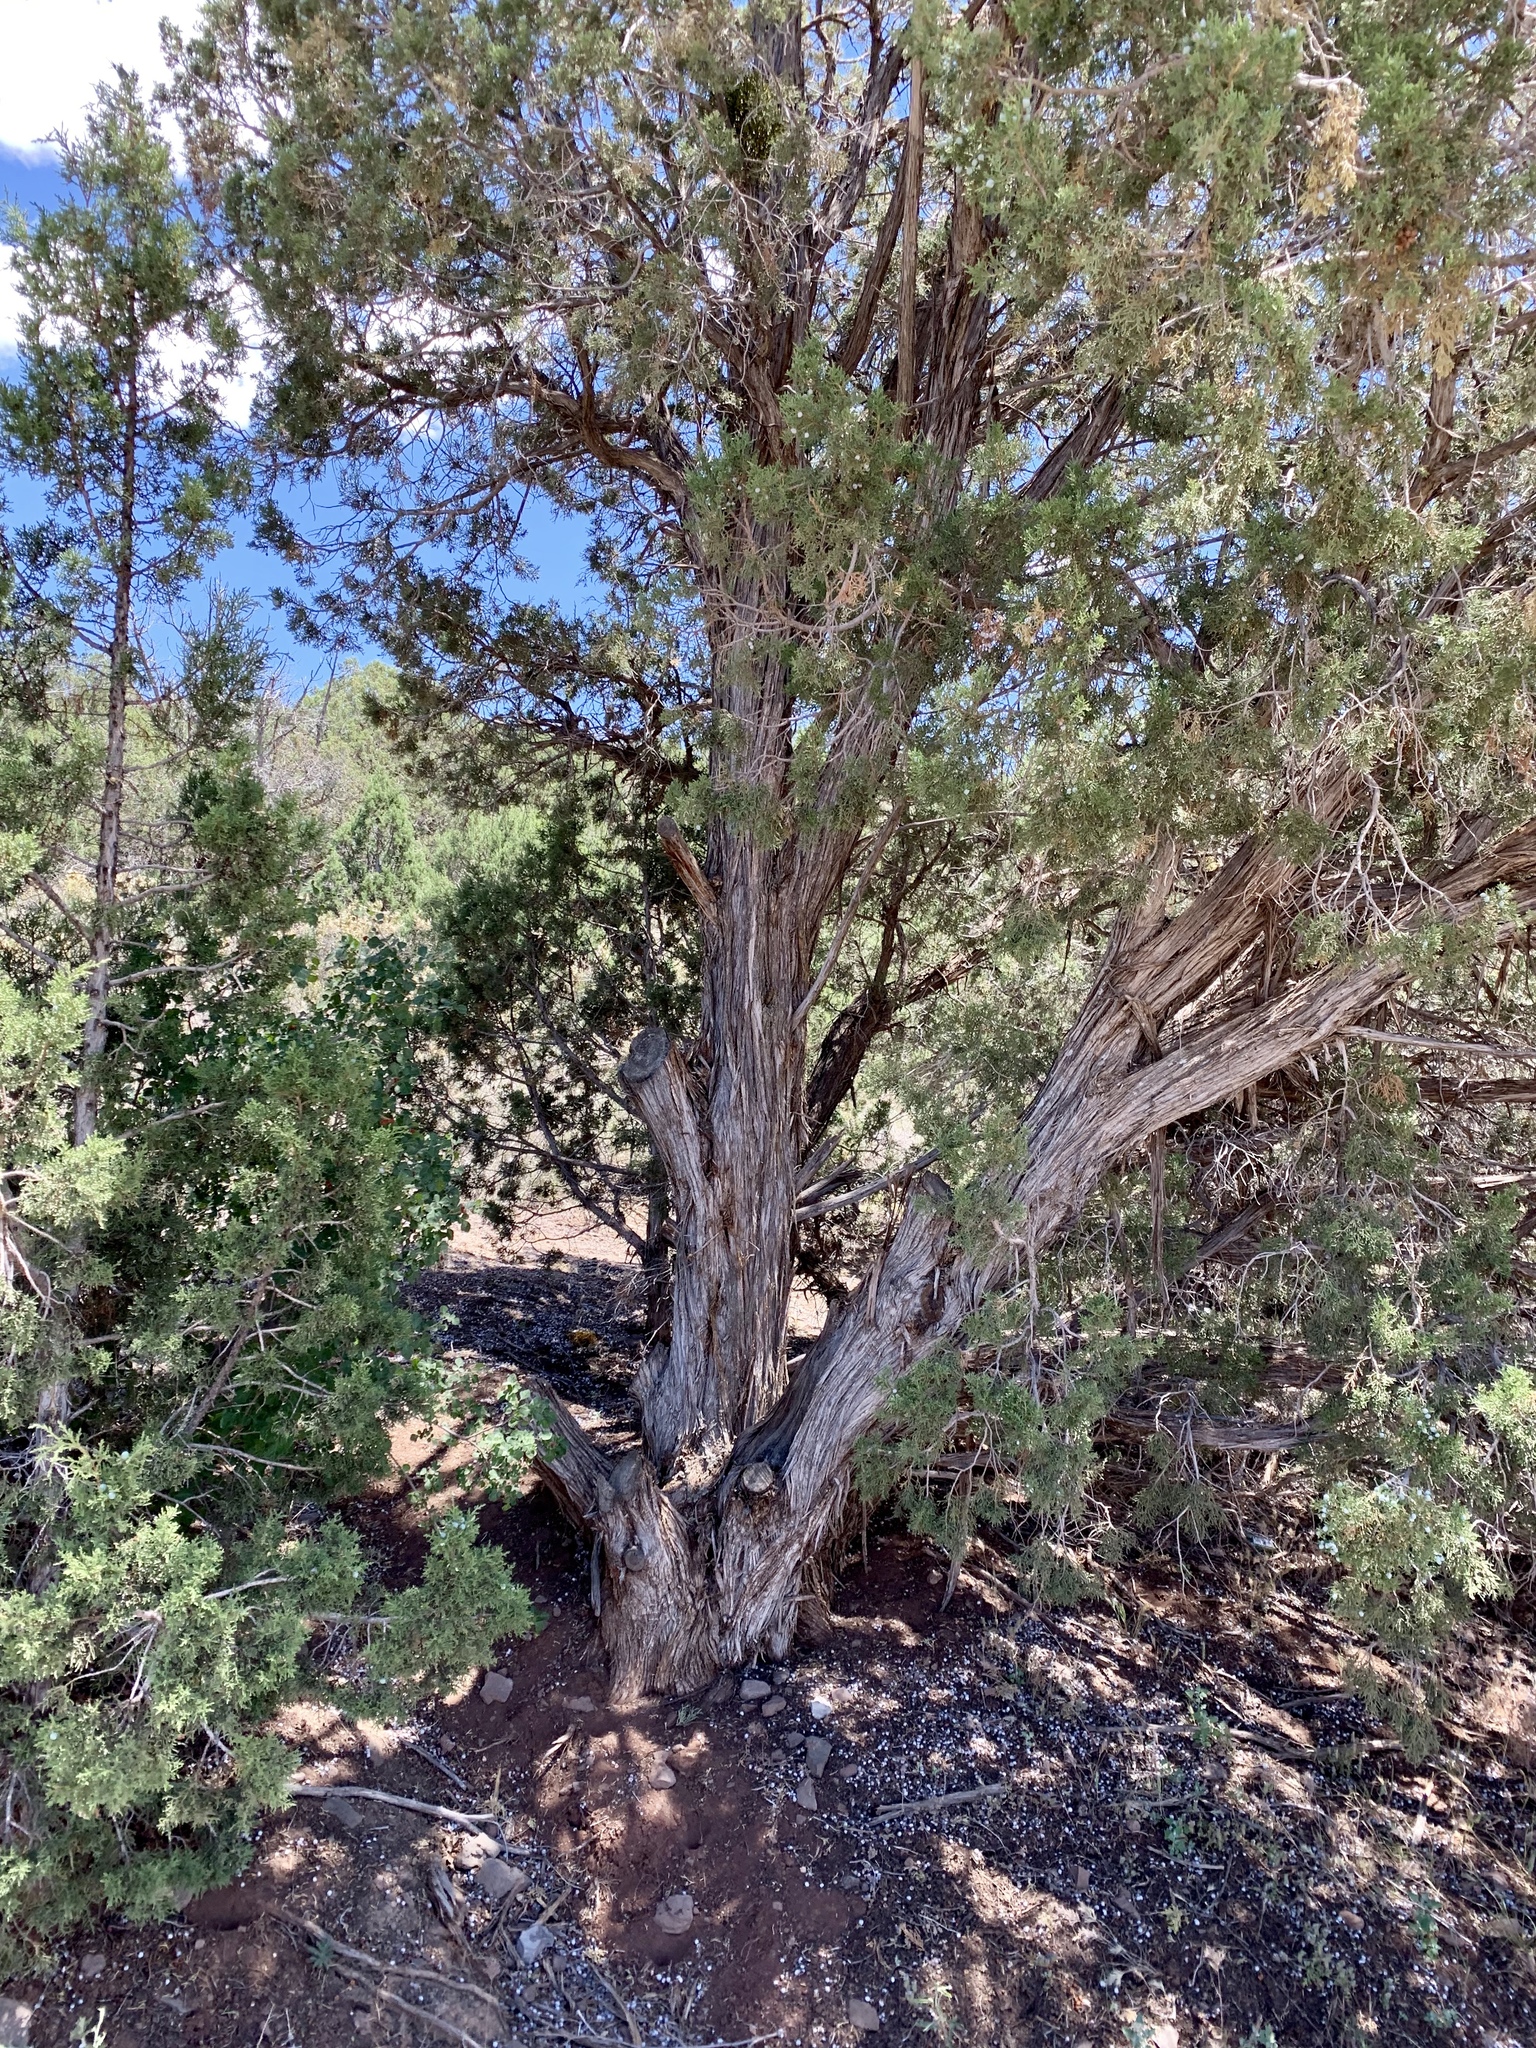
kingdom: Plantae
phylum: Tracheophyta
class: Pinopsida
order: Pinales
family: Cupressaceae
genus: Juniperus
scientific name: Juniperus osteosperma
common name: Utah juniper
